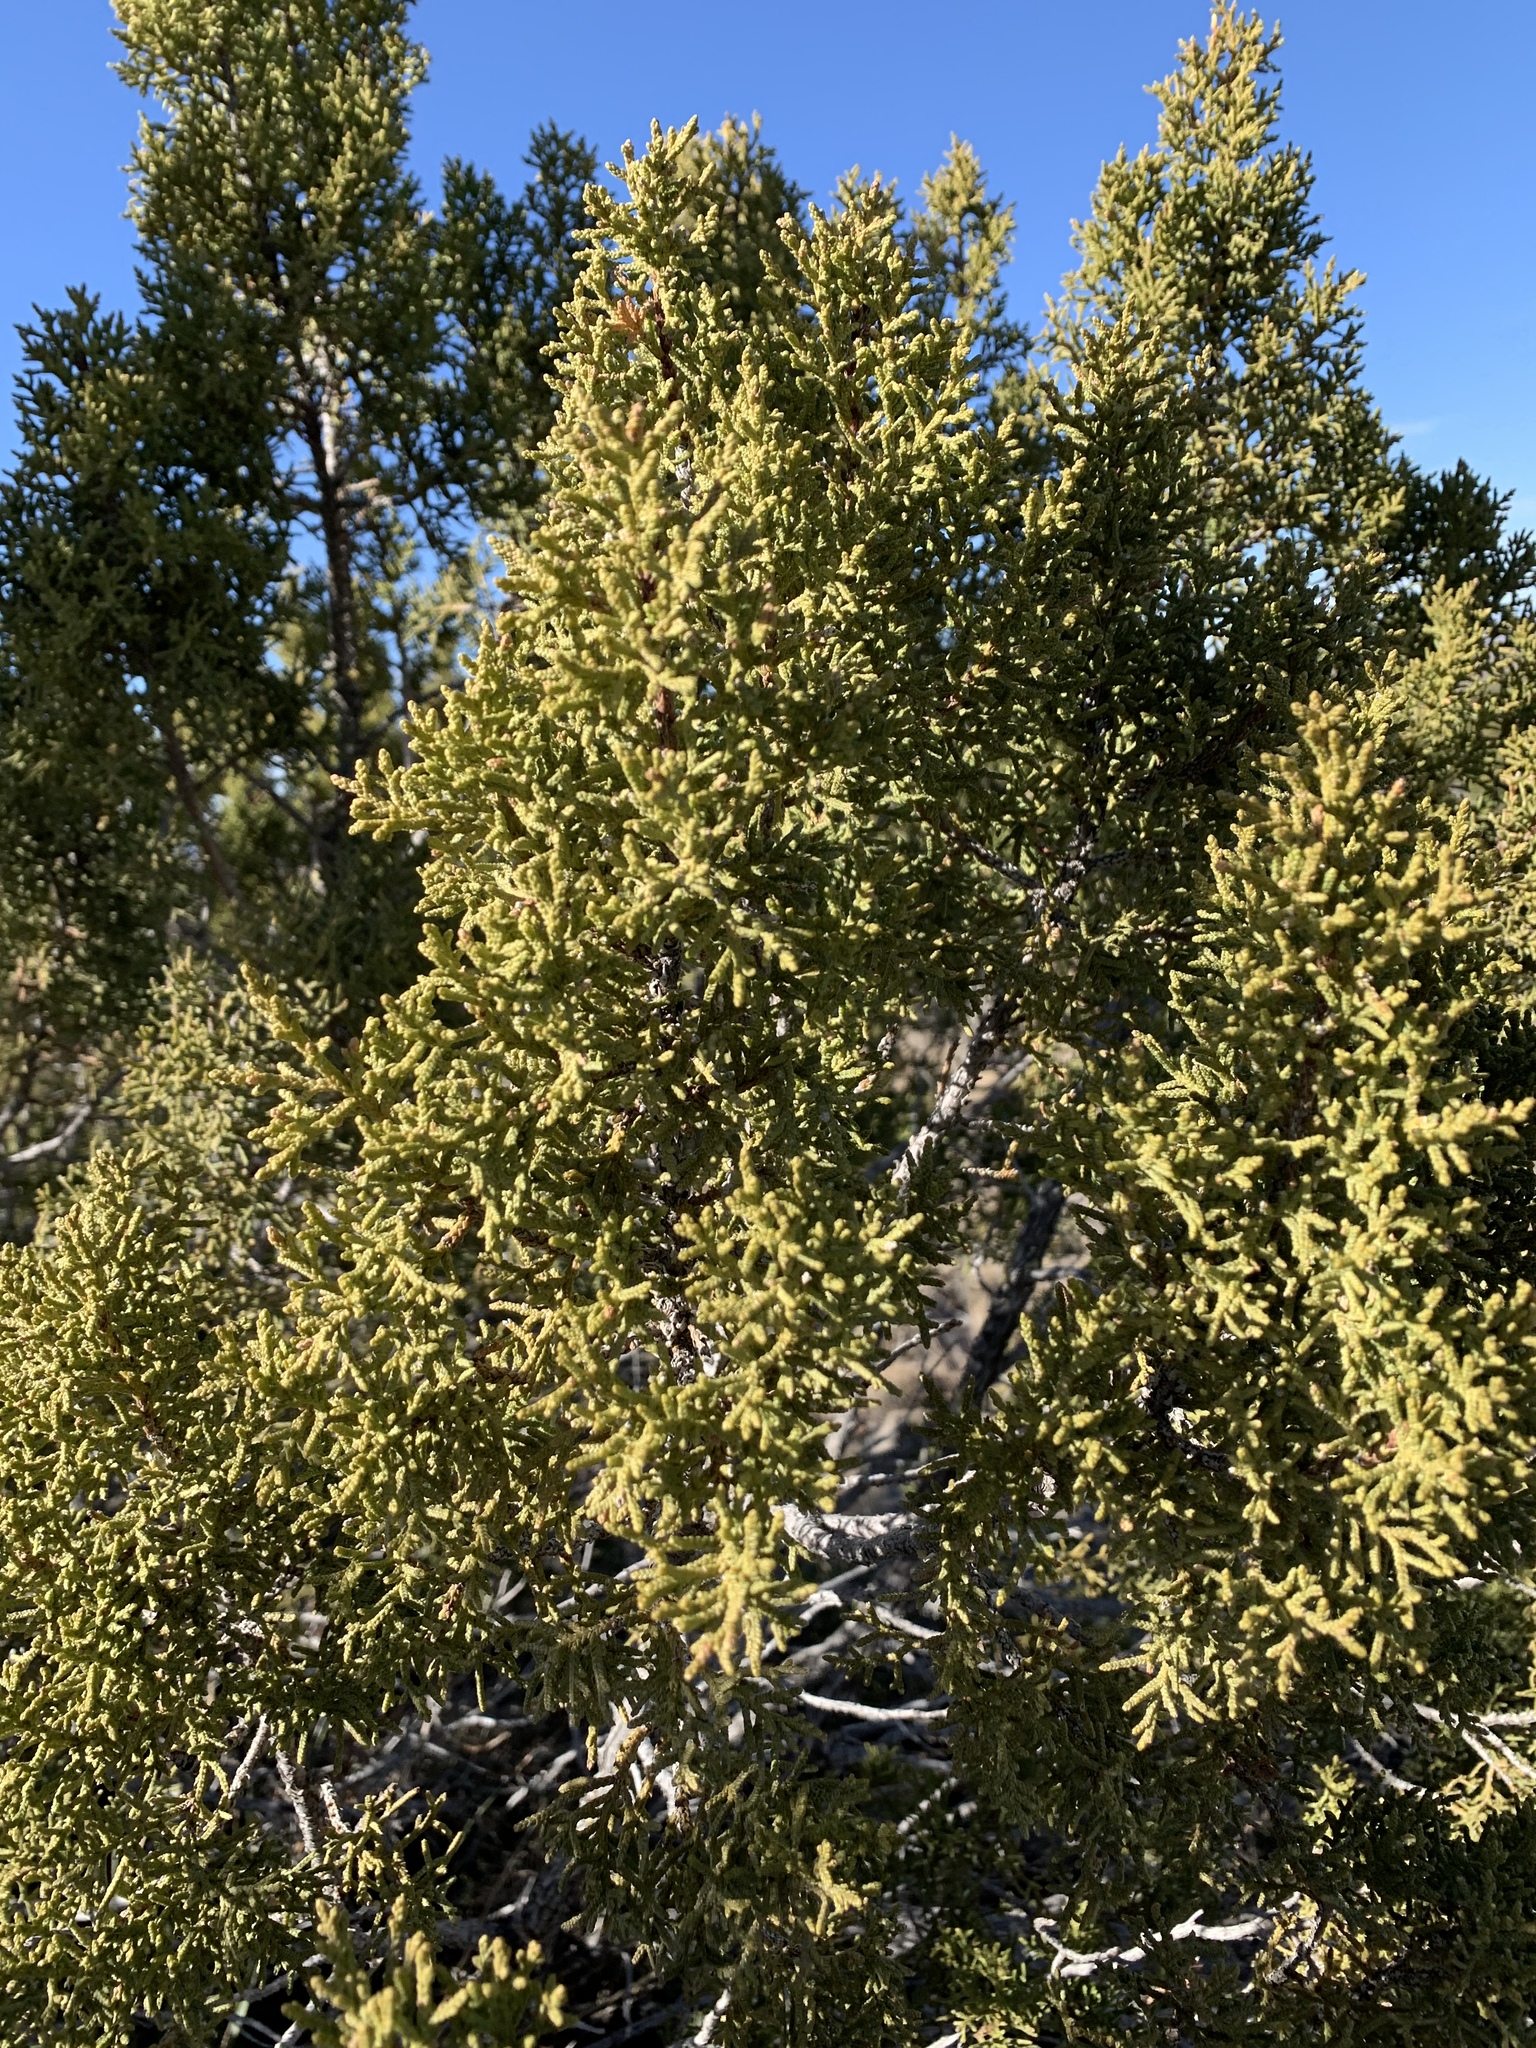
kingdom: Plantae
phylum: Tracheophyta
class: Pinopsida
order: Pinales
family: Cupressaceae
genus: Juniperus
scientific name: Juniperus monosperma
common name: One-seed juniper
